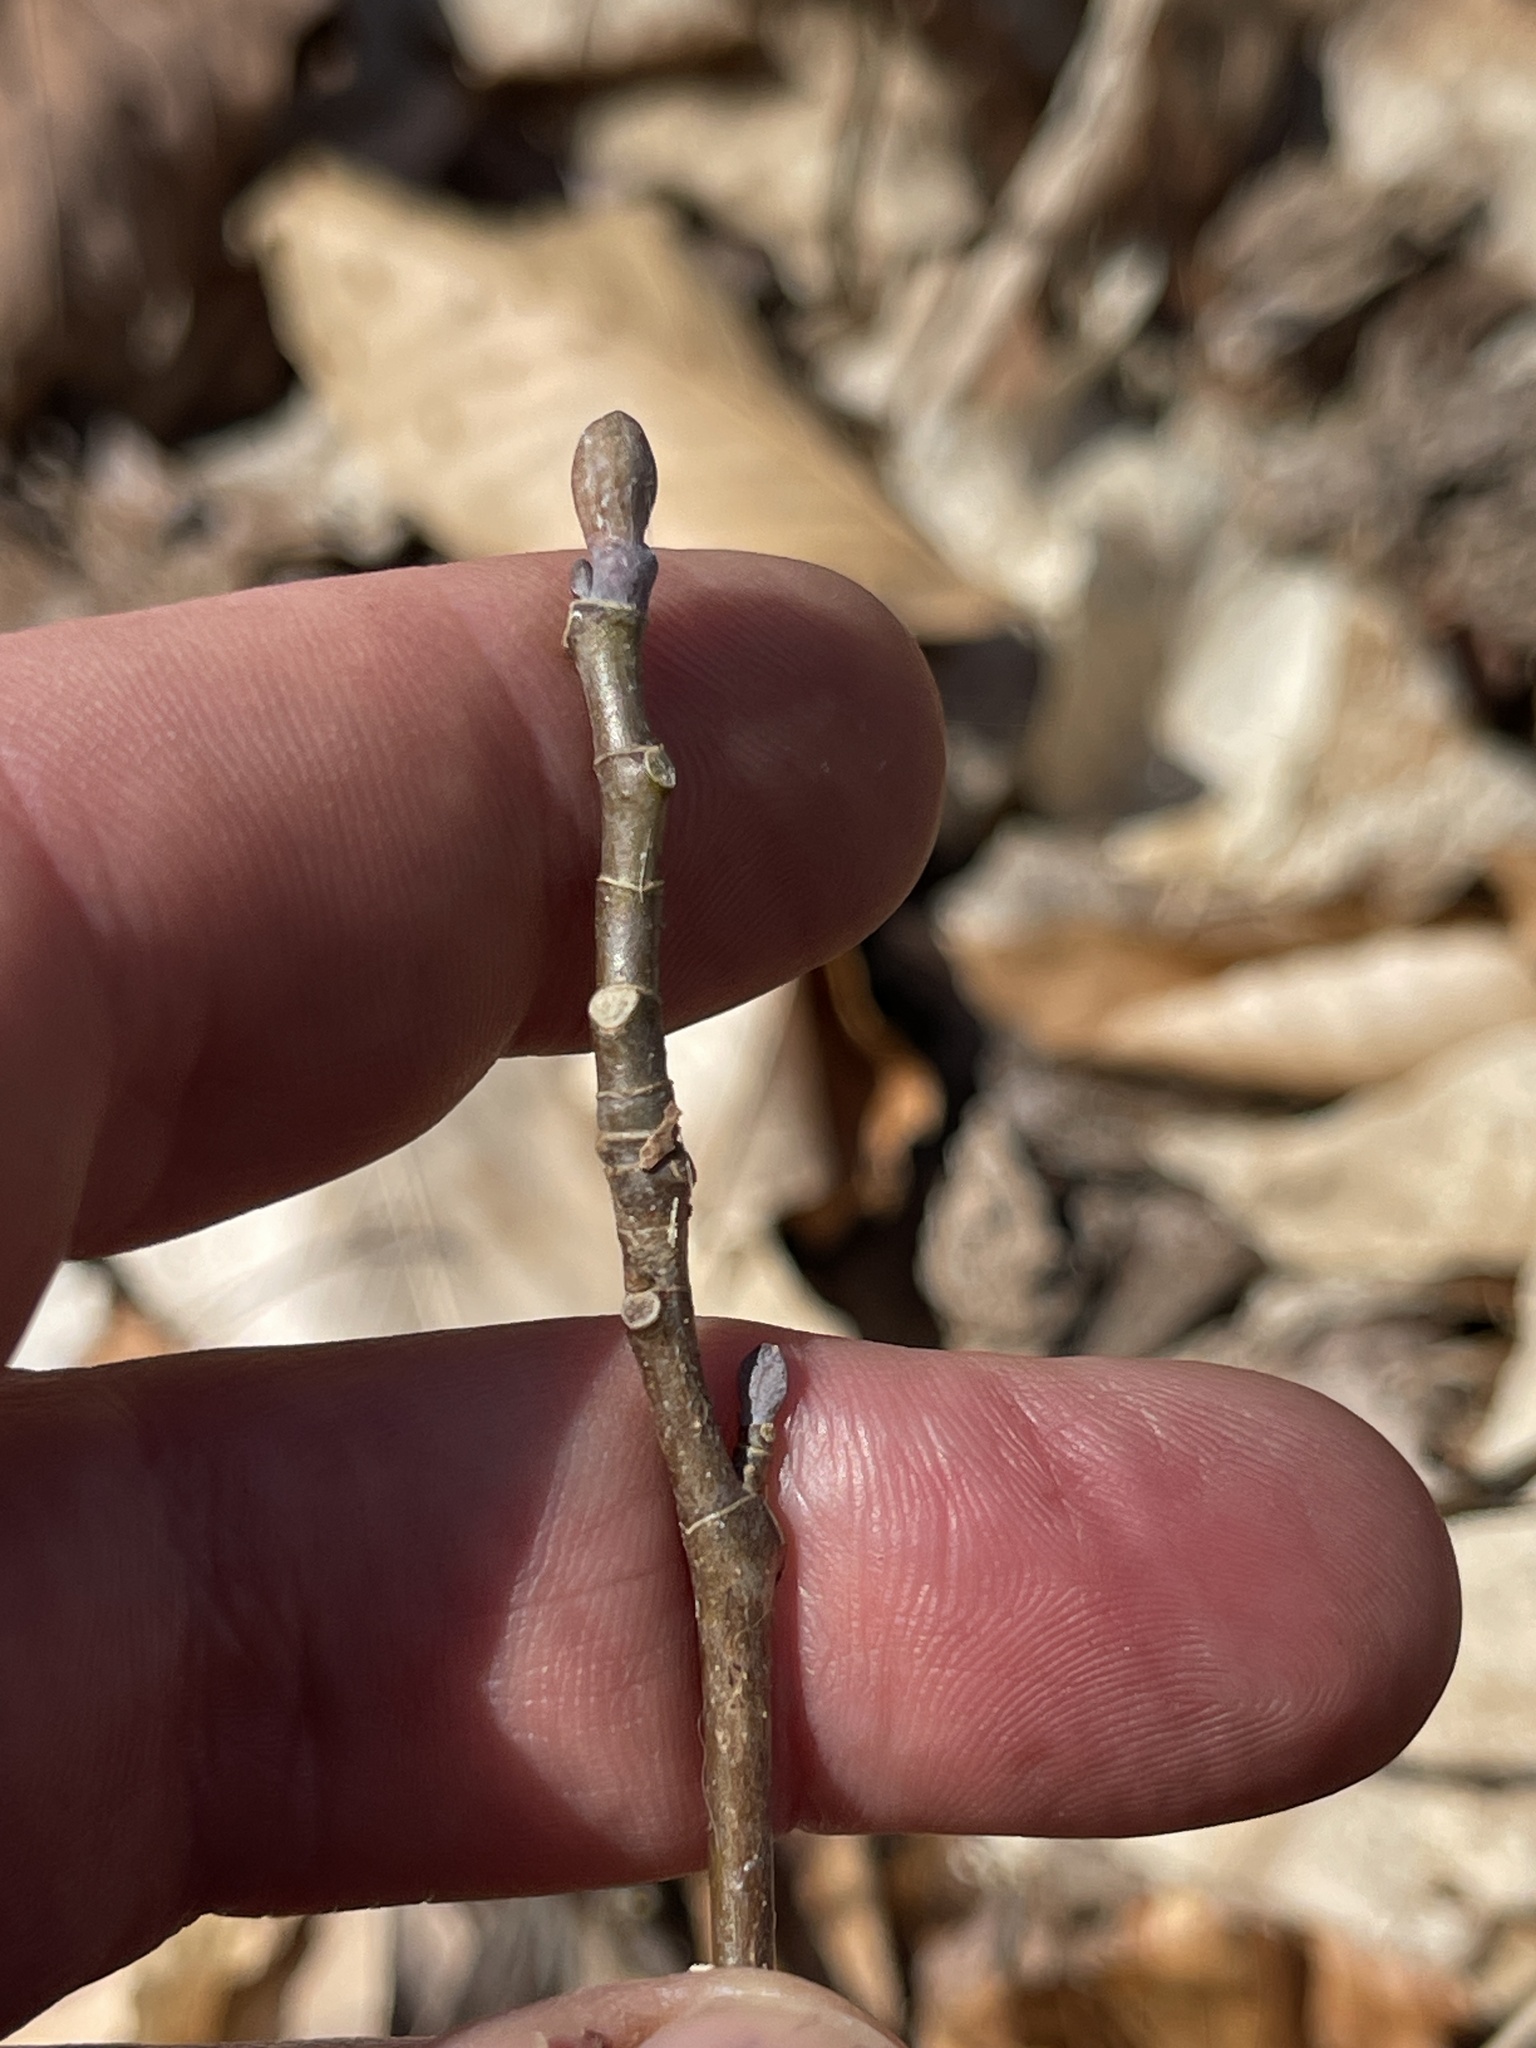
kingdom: Plantae
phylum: Tracheophyta
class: Magnoliopsida
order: Magnoliales
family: Magnoliaceae
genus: Liriodendron
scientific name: Liriodendron tulipifera
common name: Tulip tree
